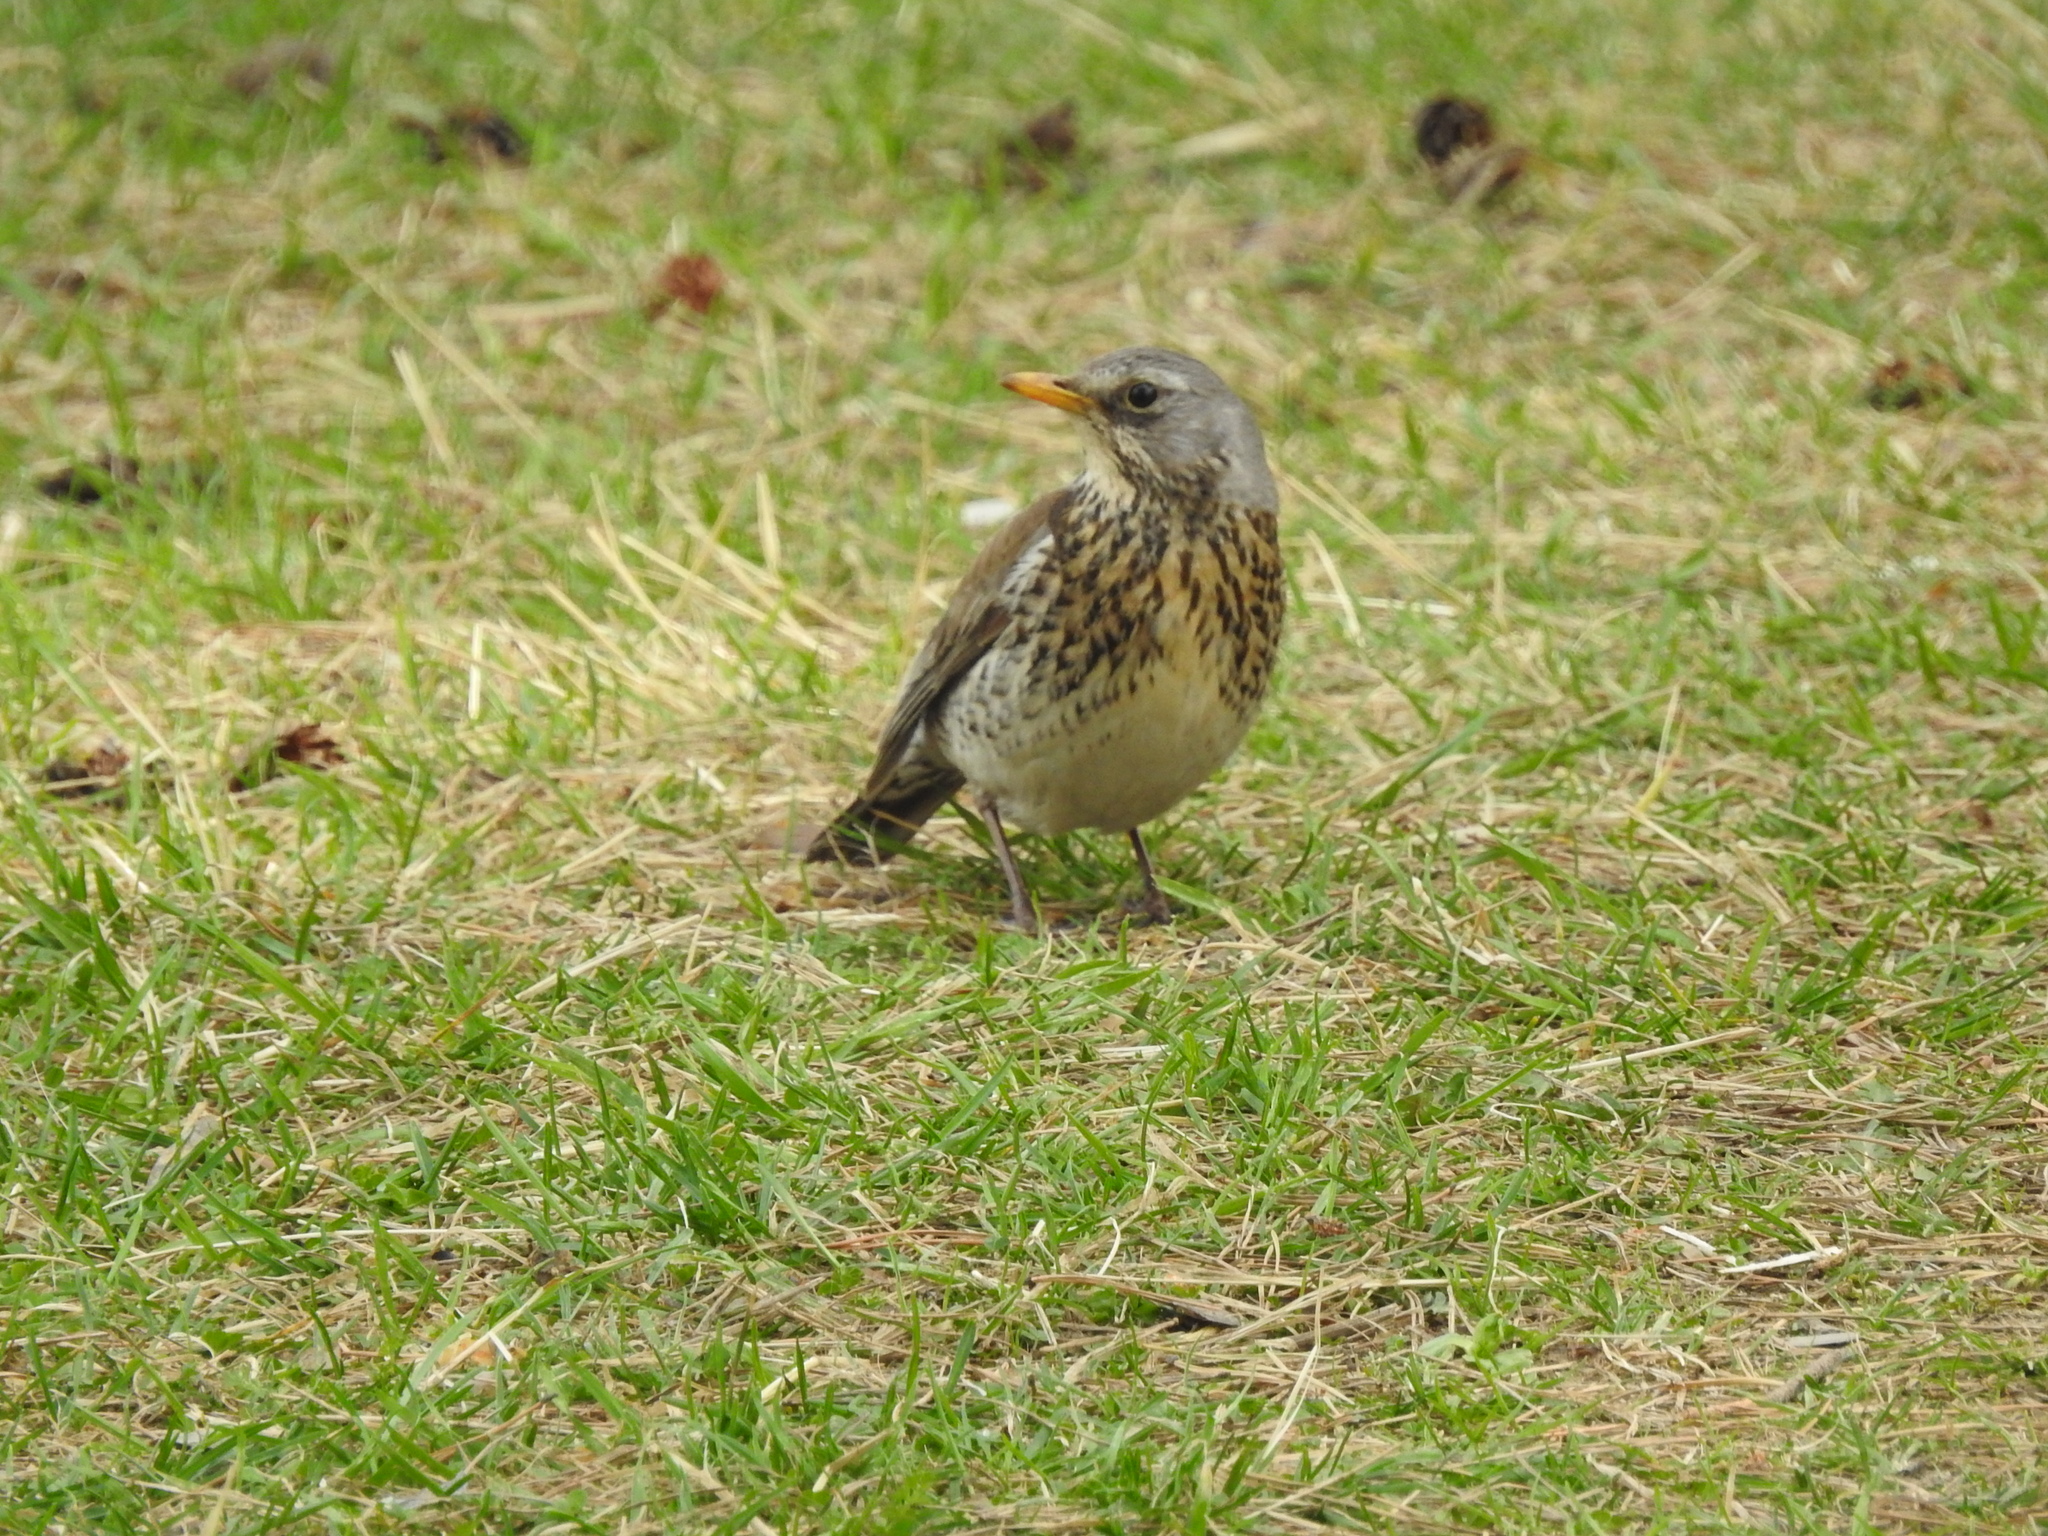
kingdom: Animalia
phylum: Chordata
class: Aves
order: Passeriformes
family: Turdidae
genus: Turdus
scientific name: Turdus pilaris
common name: Fieldfare
